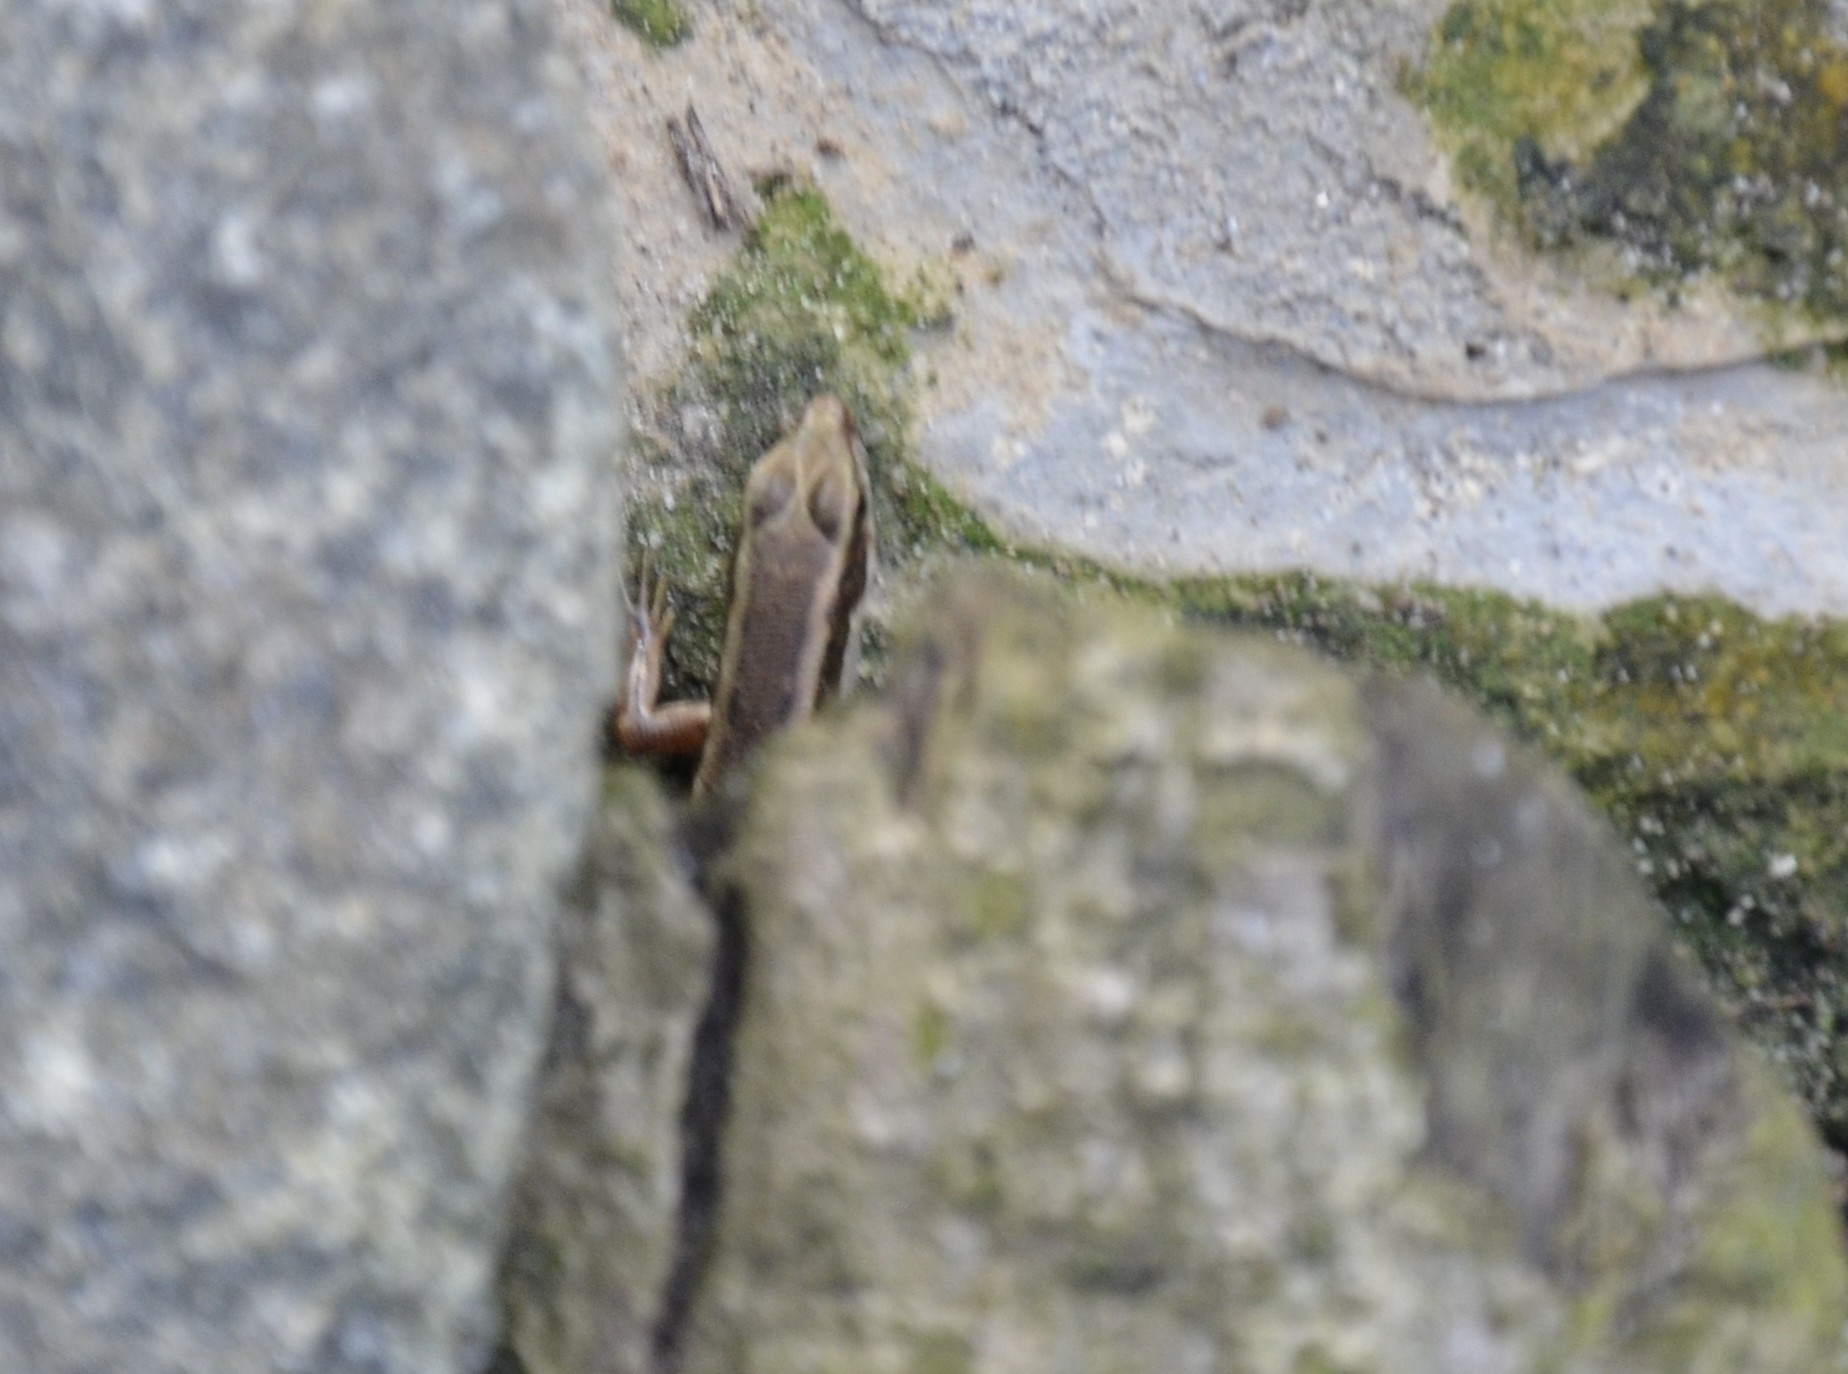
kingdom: Animalia
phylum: Chordata
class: Squamata
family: Scincidae
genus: Sphenomorphus
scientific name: Sphenomorphus dussumieri
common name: Dussumier's forest skink
